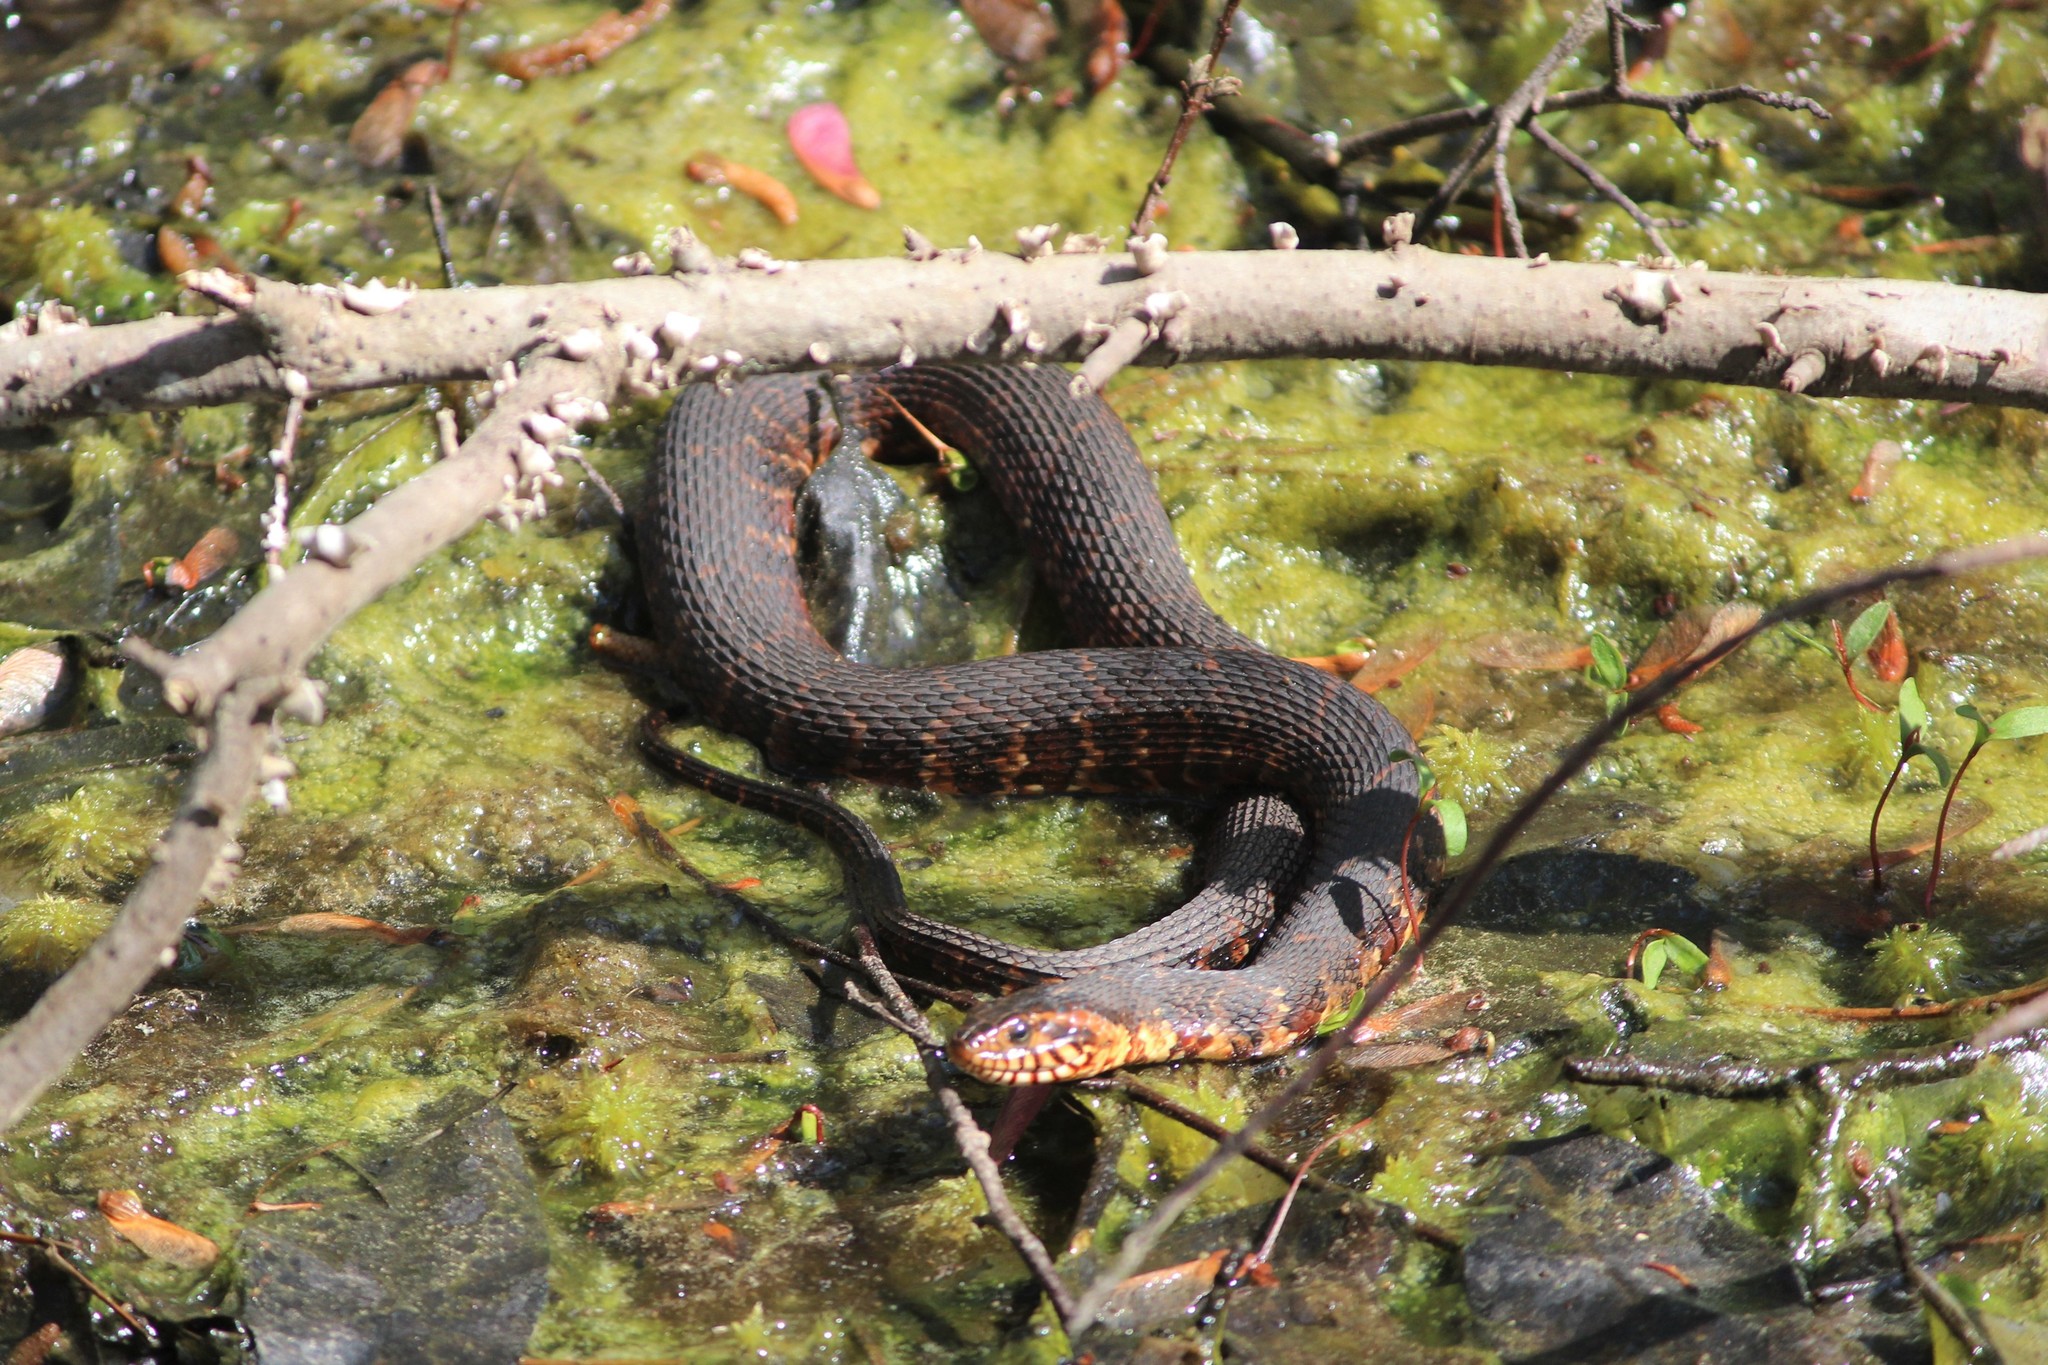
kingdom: Animalia
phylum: Chordata
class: Squamata
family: Colubridae
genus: Nerodia
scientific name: Nerodia fasciata
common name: Southern water snake
